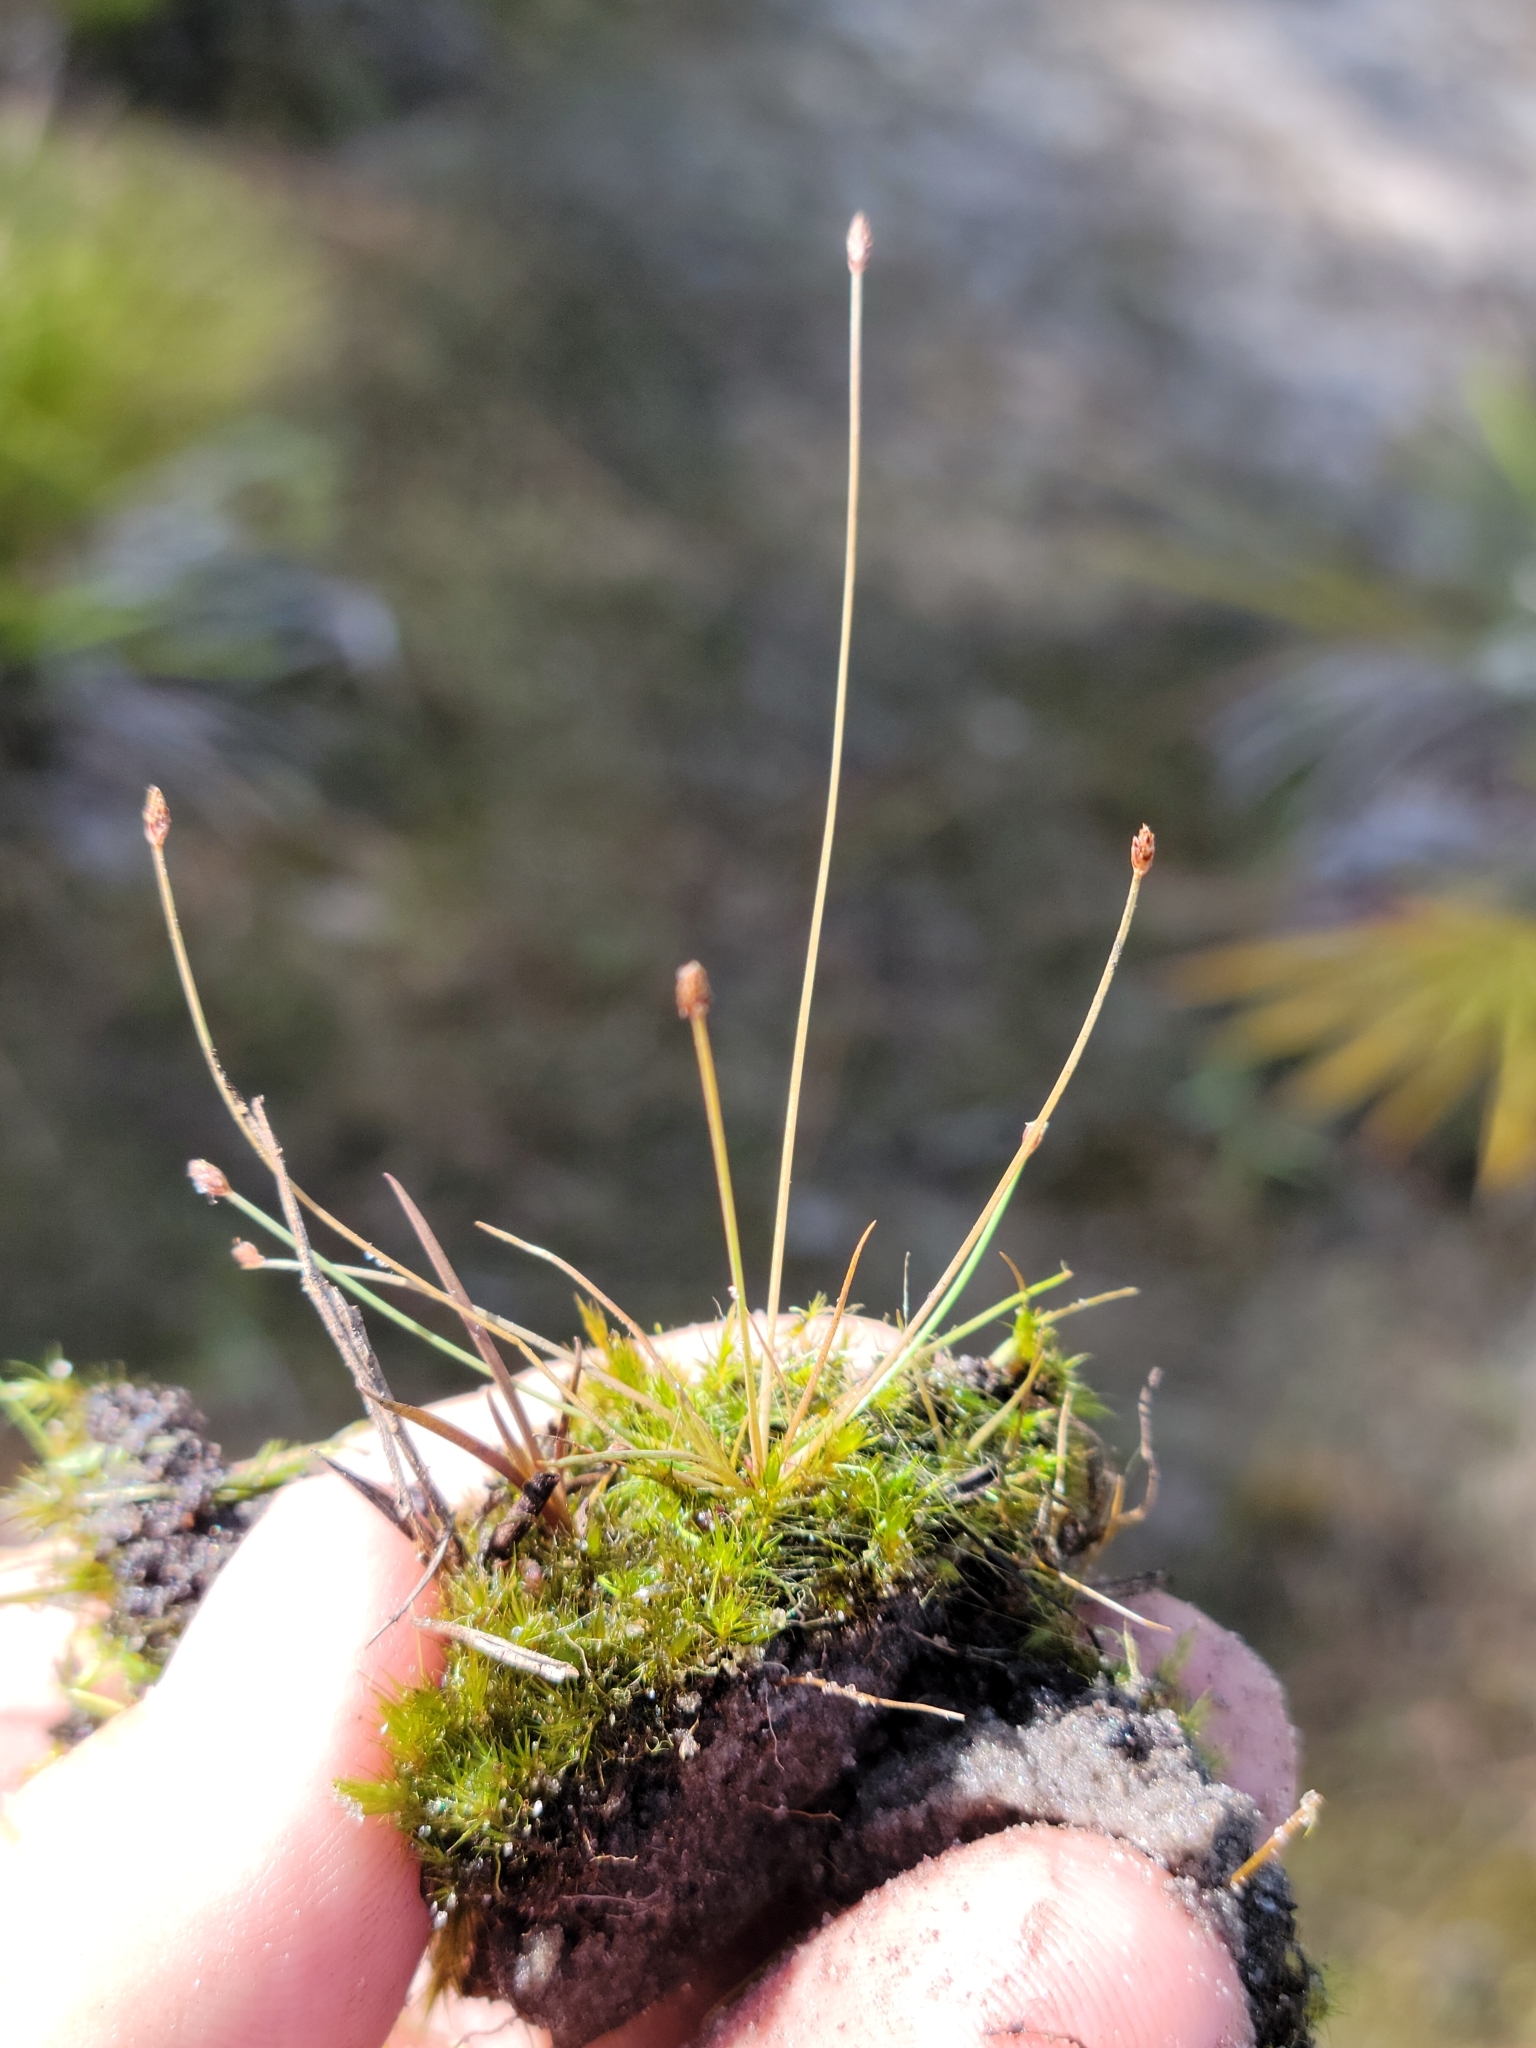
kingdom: Plantae
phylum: Tracheophyta
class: Liliopsida
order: Poales
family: Cyperaceae
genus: Eleocharis
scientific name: Eleocharis nigrescens
